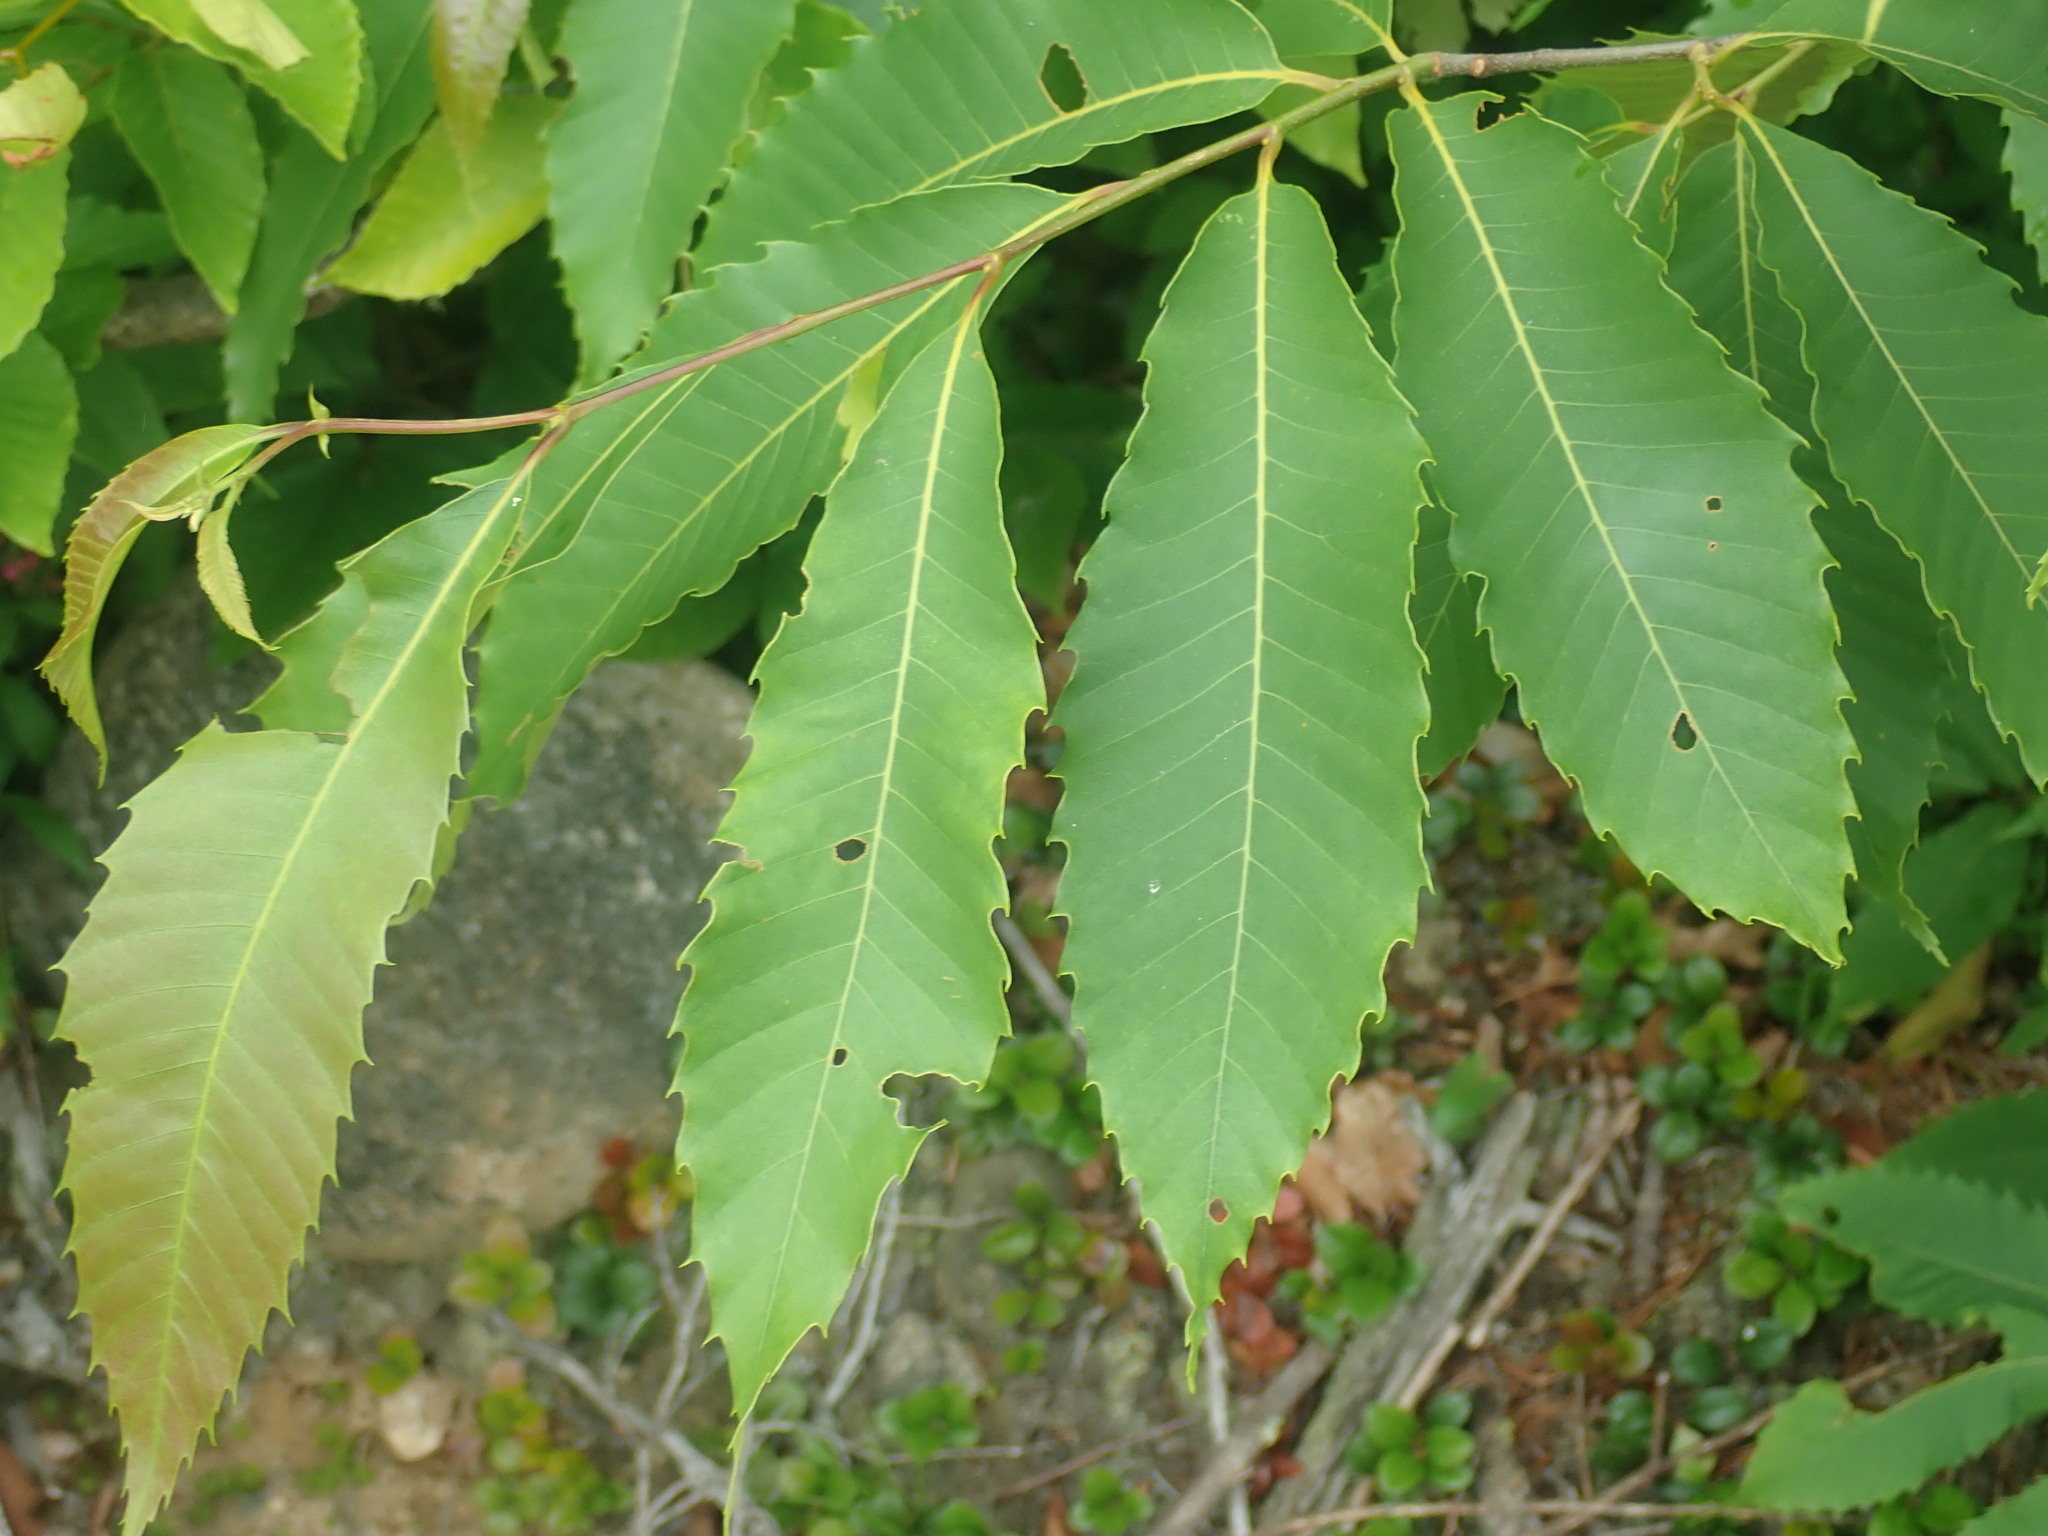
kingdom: Plantae
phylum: Tracheophyta
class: Magnoliopsida
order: Fagales
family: Fagaceae
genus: Castanea
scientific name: Castanea dentata
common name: American chestnut
